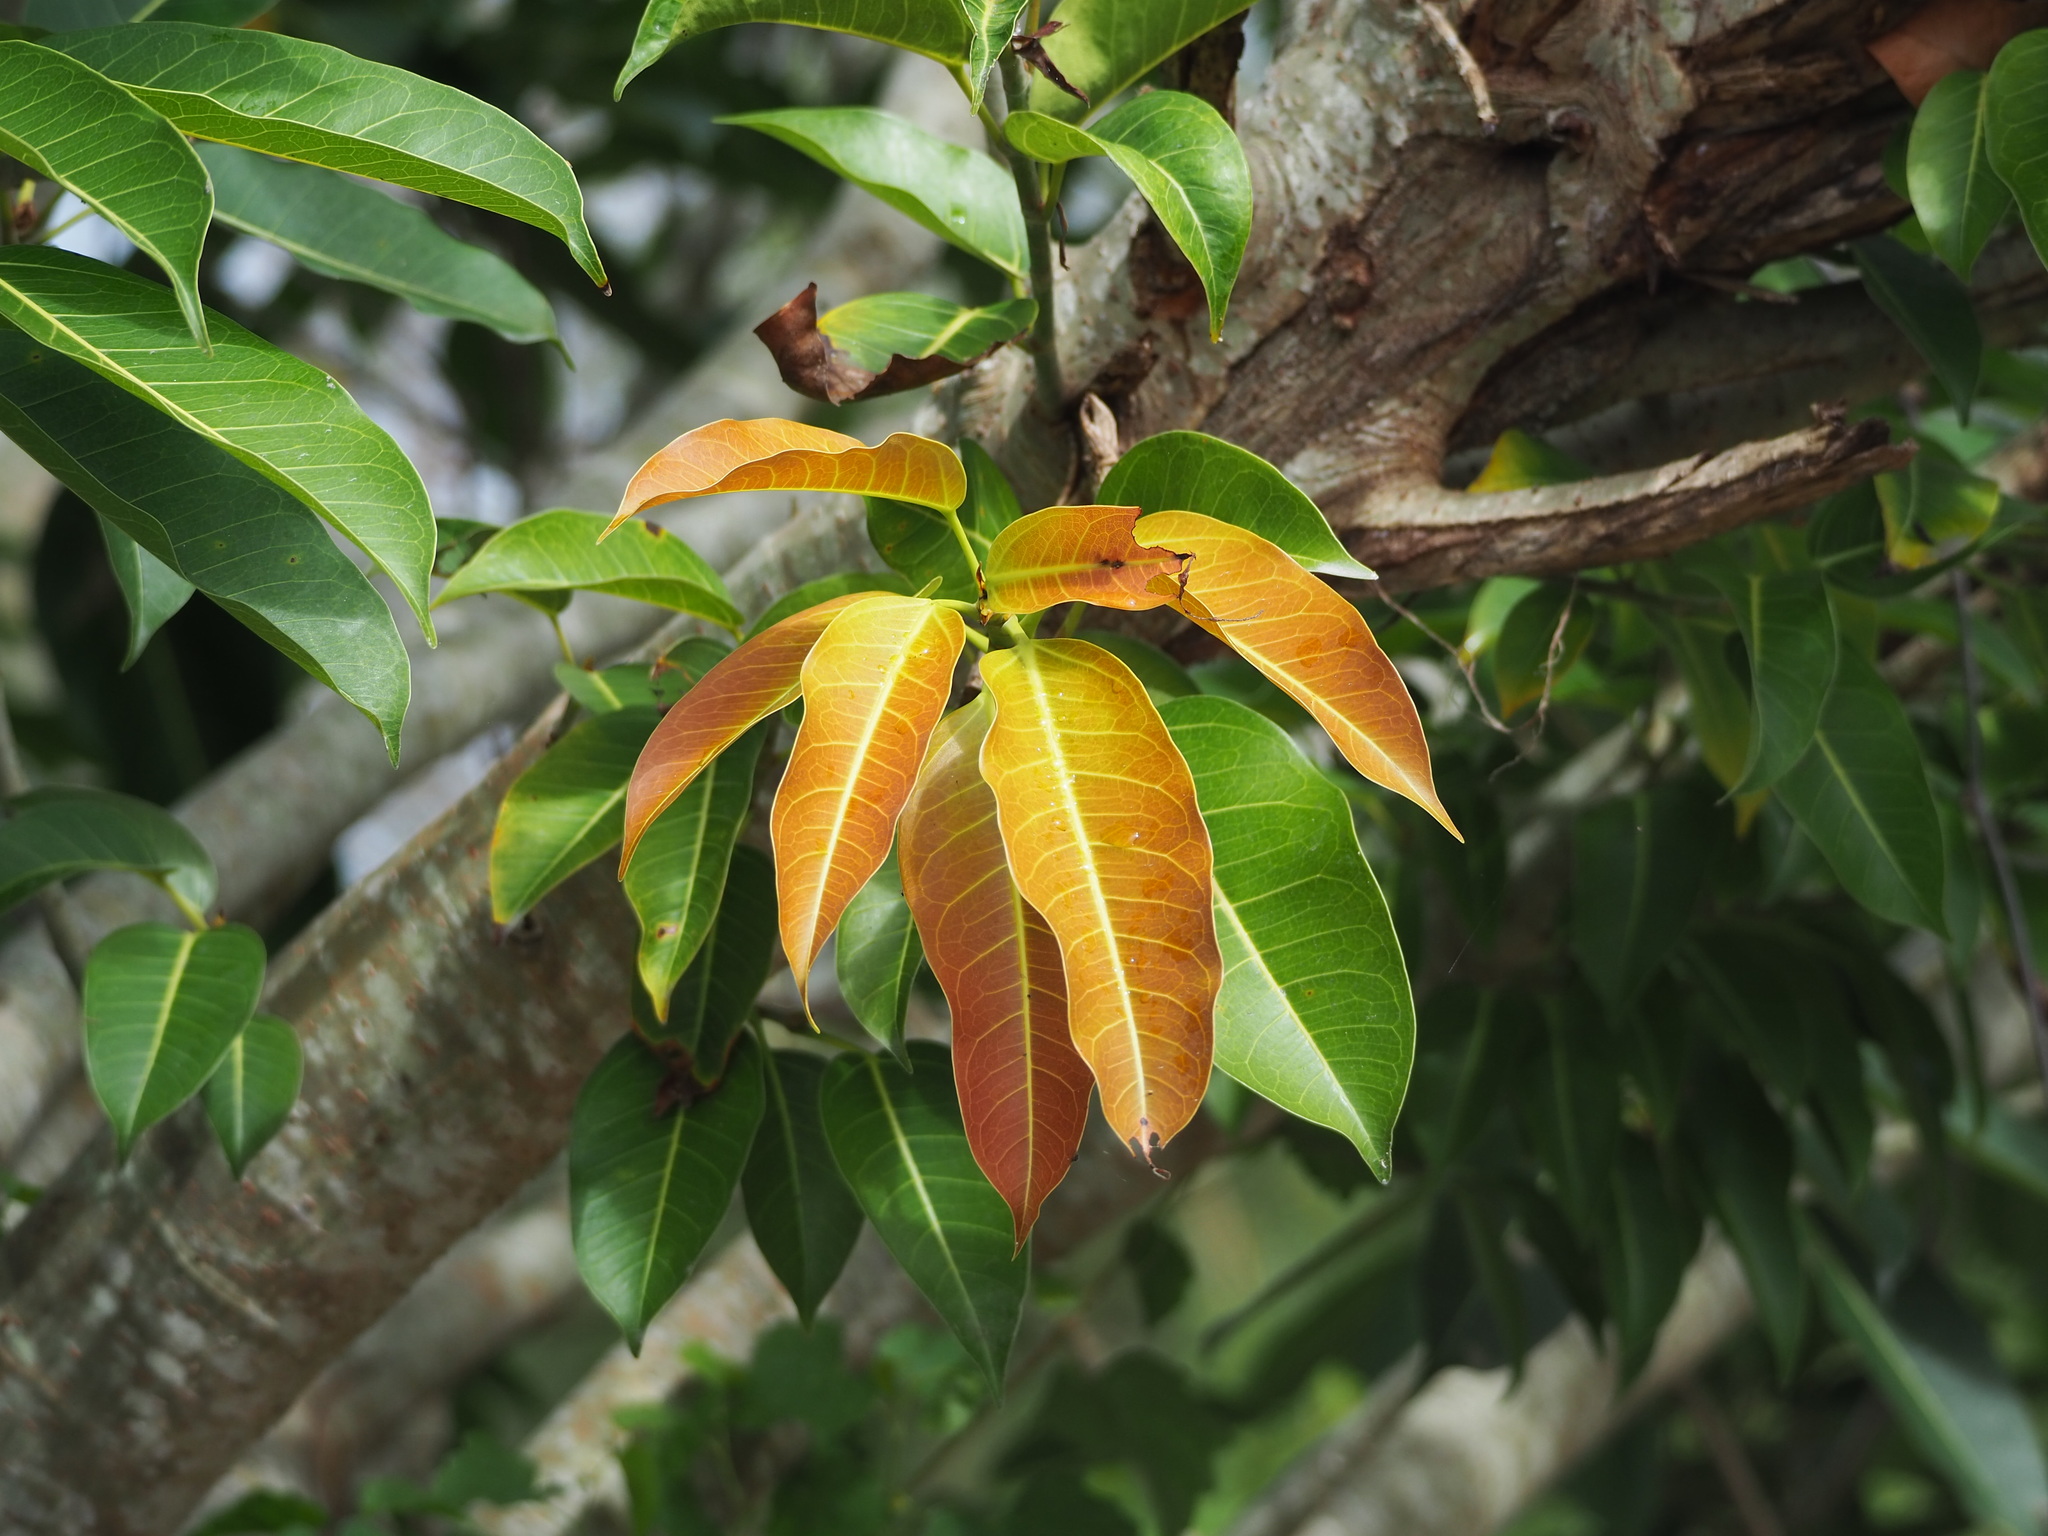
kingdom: Plantae
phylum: Tracheophyta
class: Magnoliopsida
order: Rosales
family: Moraceae
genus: Ficus
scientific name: Ficus subpisocarpa
